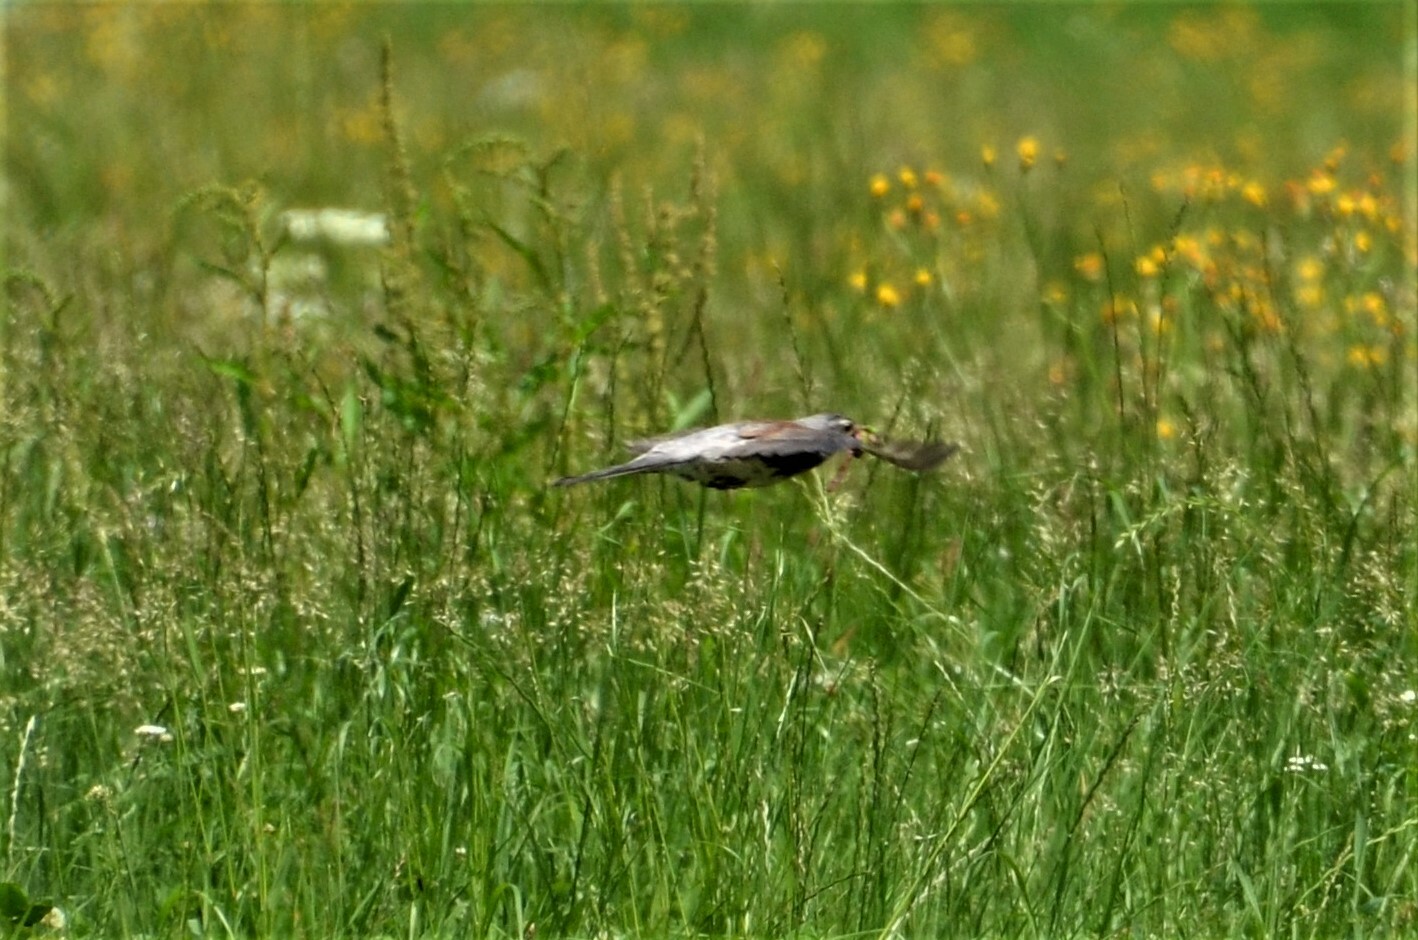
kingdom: Animalia
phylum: Chordata
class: Aves
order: Passeriformes
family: Turdidae
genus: Turdus
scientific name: Turdus pilaris
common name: Fieldfare
